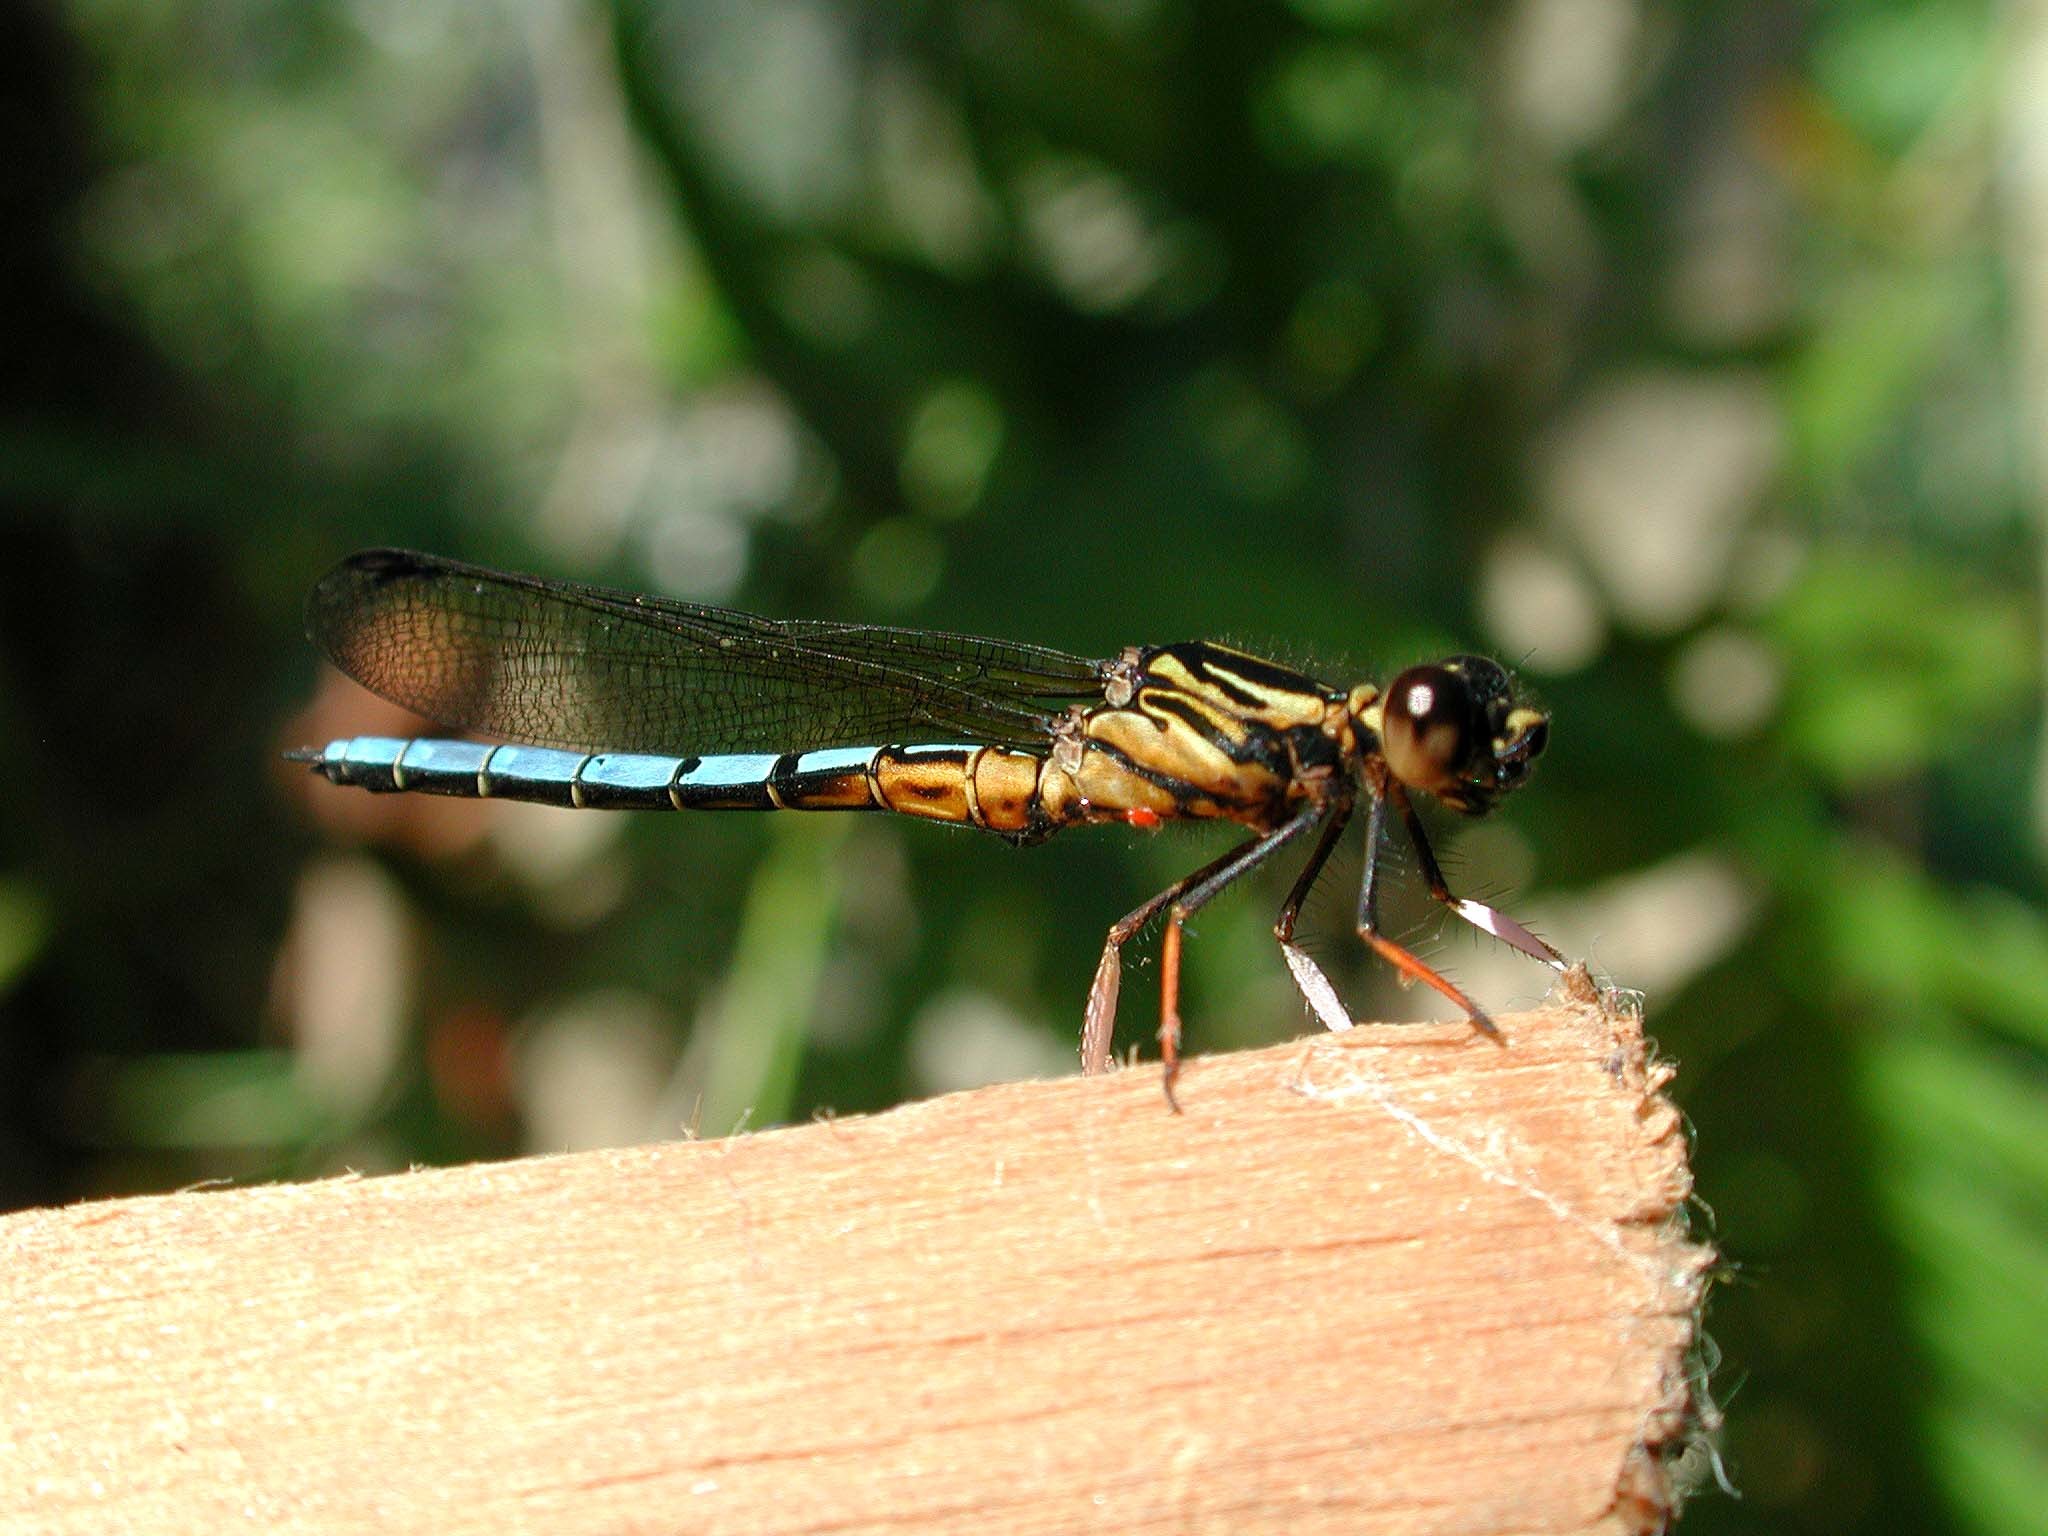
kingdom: Animalia
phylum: Arthropoda
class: Insecta
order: Odonata
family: Chlorocyphidae
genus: Platycypha
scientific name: Platycypha caligata
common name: Dancing jewel
